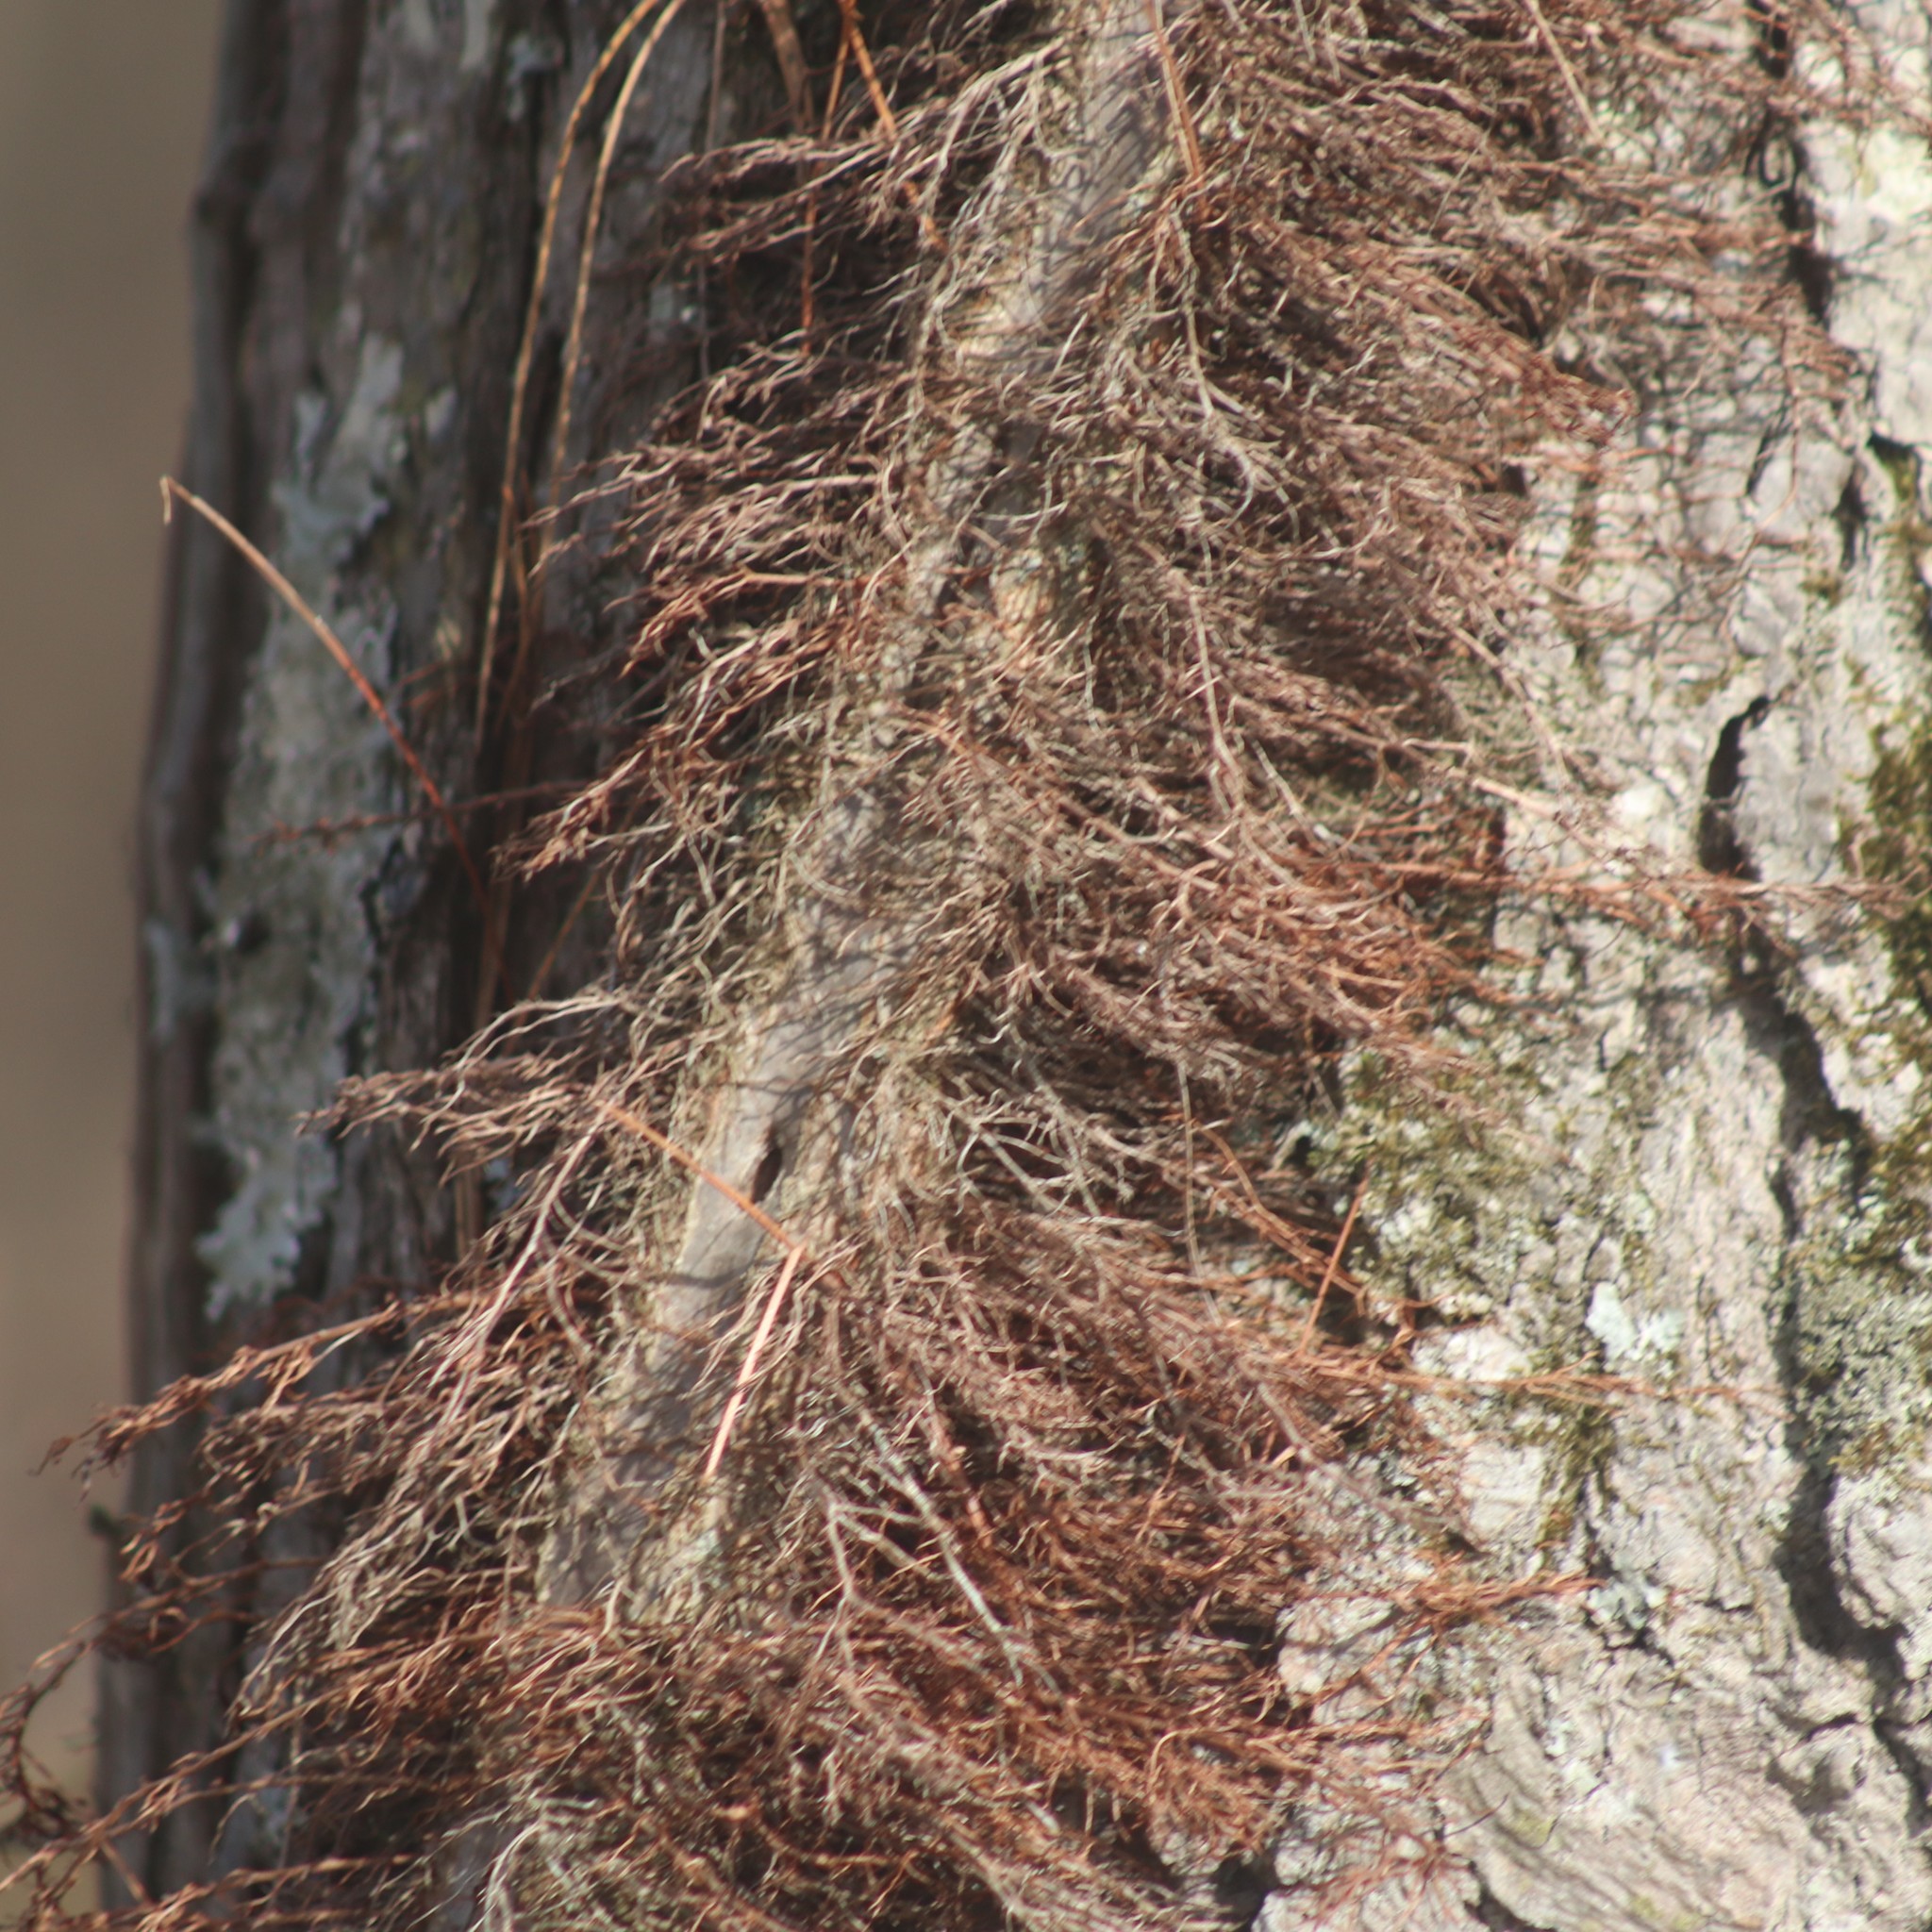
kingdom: Plantae
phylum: Tracheophyta
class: Magnoliopsida
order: Sapindales
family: Anacardiaceae
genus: Toxicodendron
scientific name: Toxicodendron radicans
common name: Poison ivy
